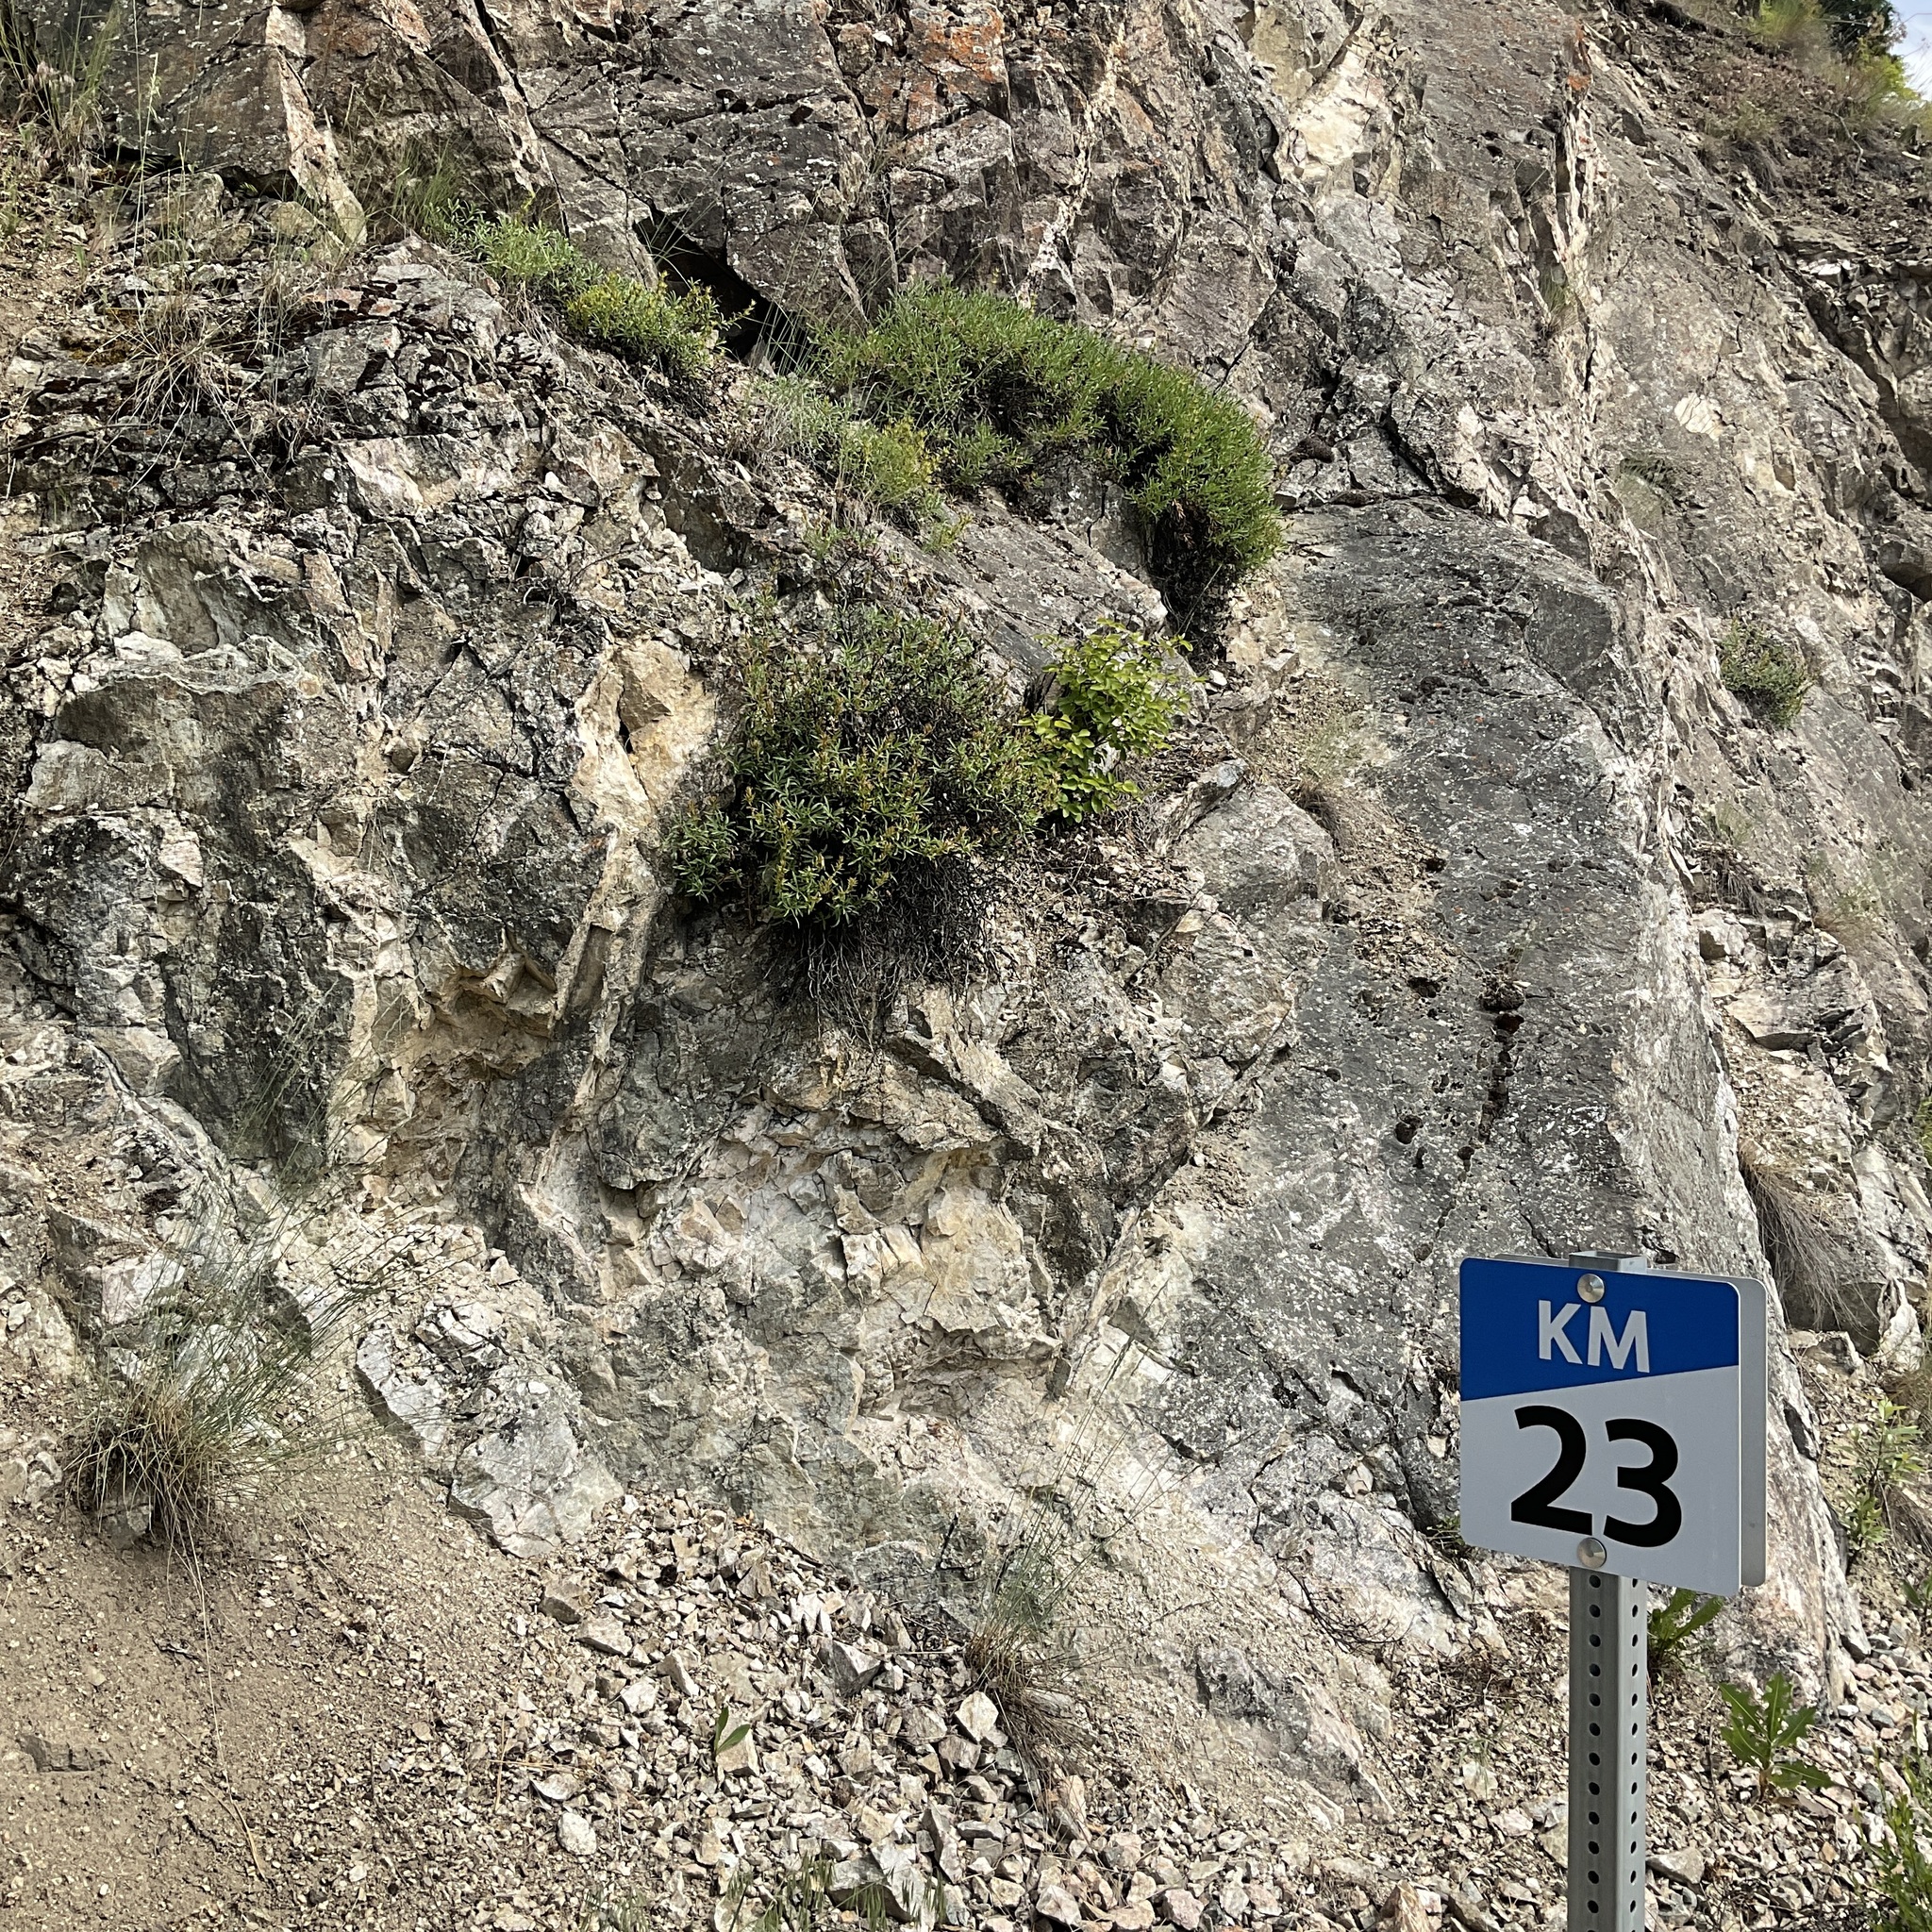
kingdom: Plantae
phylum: Tracheophyta
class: Magnoliopsida
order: Lamiales
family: Plantaginaceae
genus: Penstemon
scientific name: Penstemon fruticosus
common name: Bush penstemon
